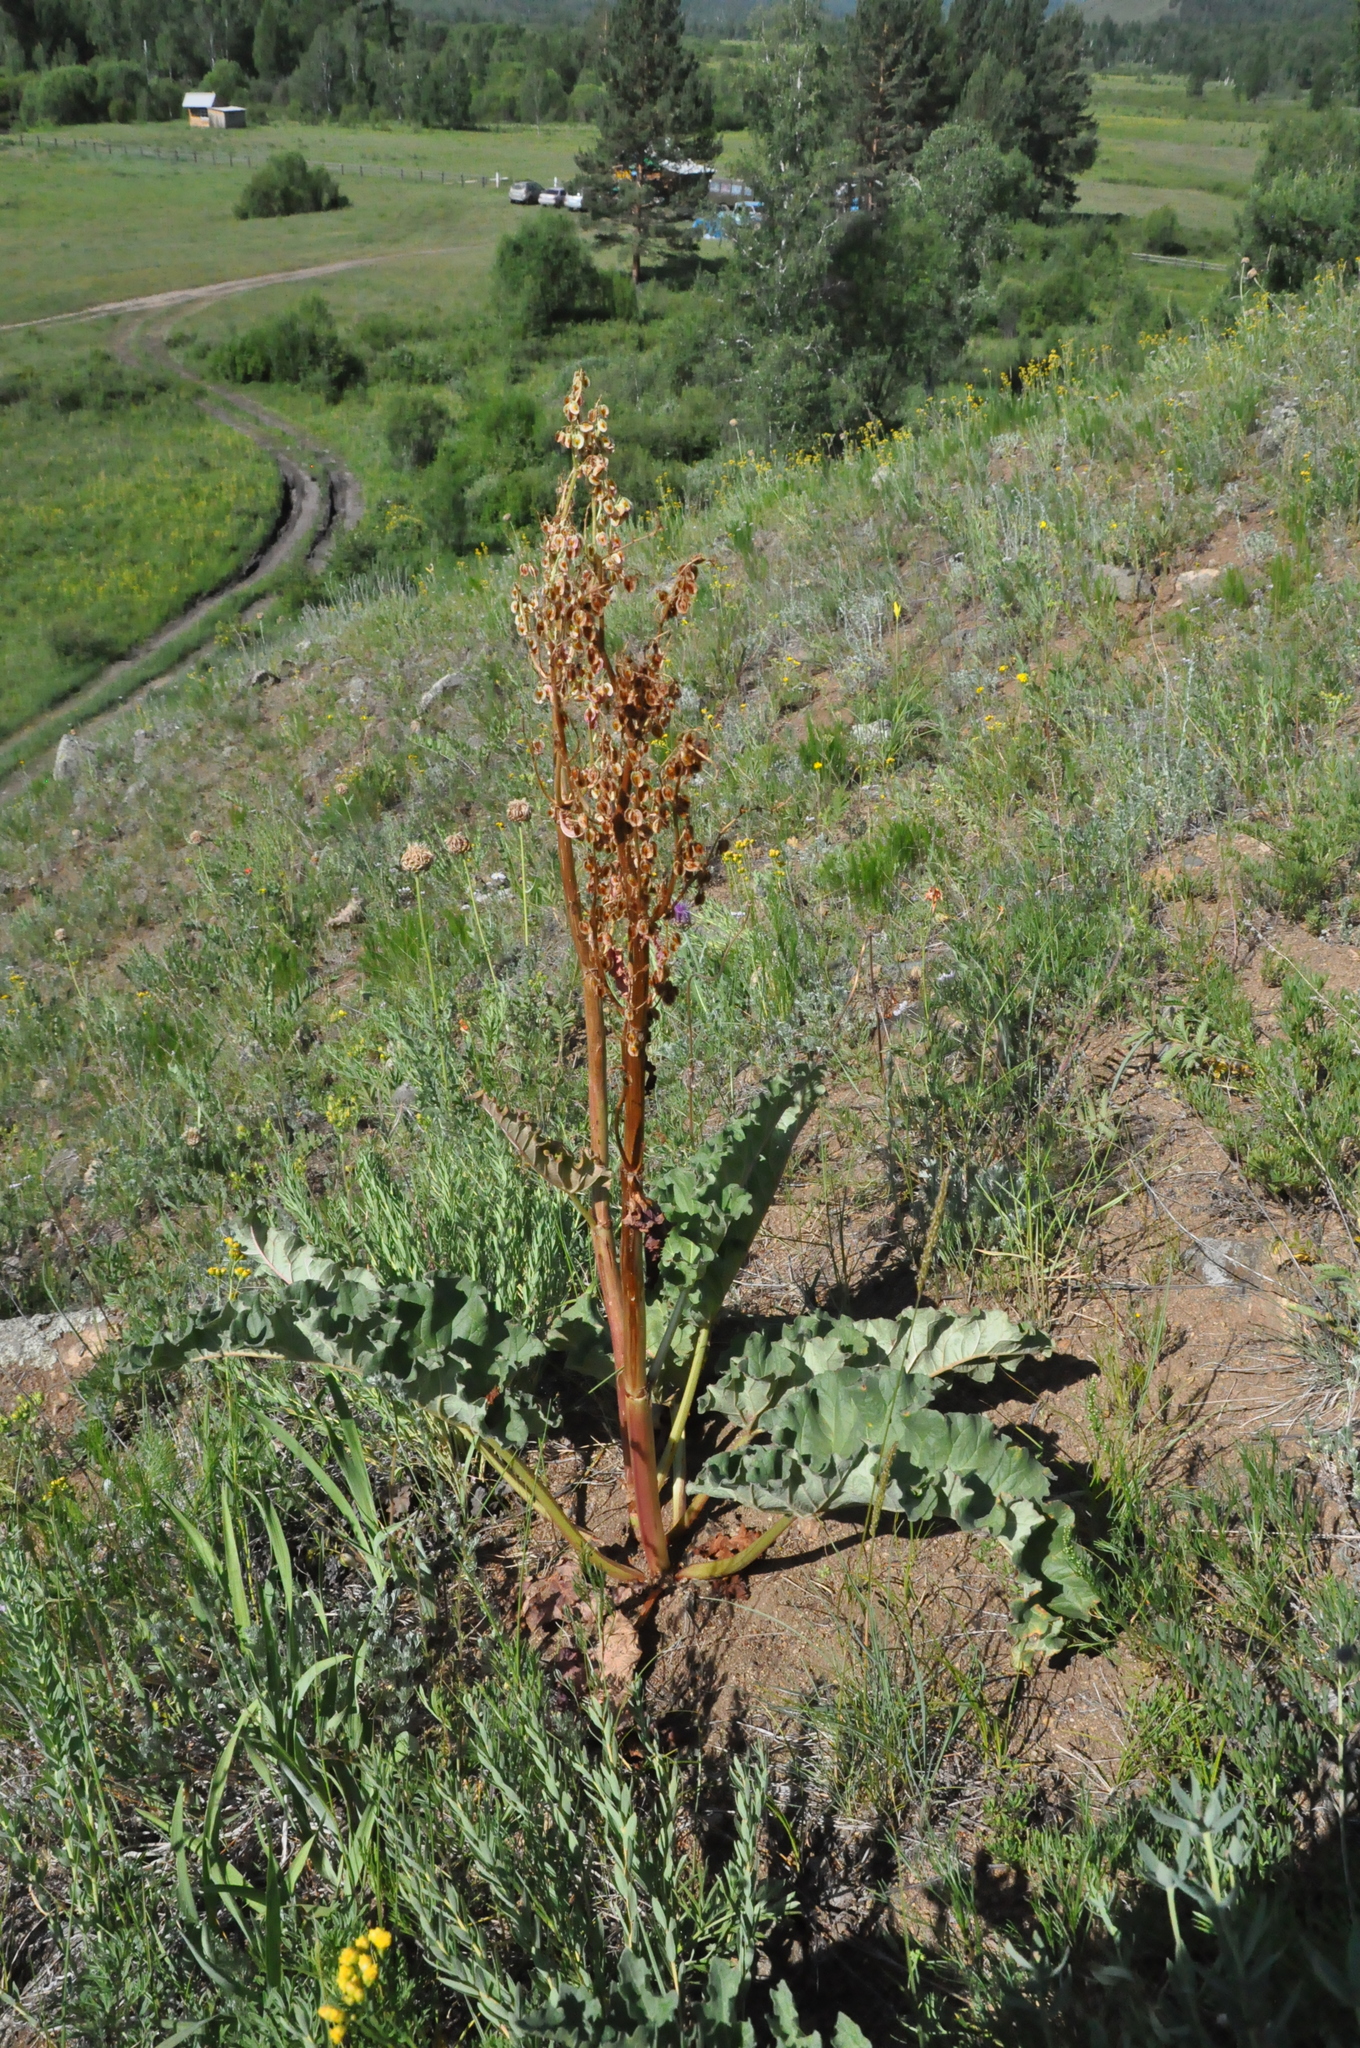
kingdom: Plantae
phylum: Tracheophyta
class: Magnoliopsida
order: Caryophyllales
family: Polygonaceae
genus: Rheum
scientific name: Rheum rhabarbarum
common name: Garden rhubarb
